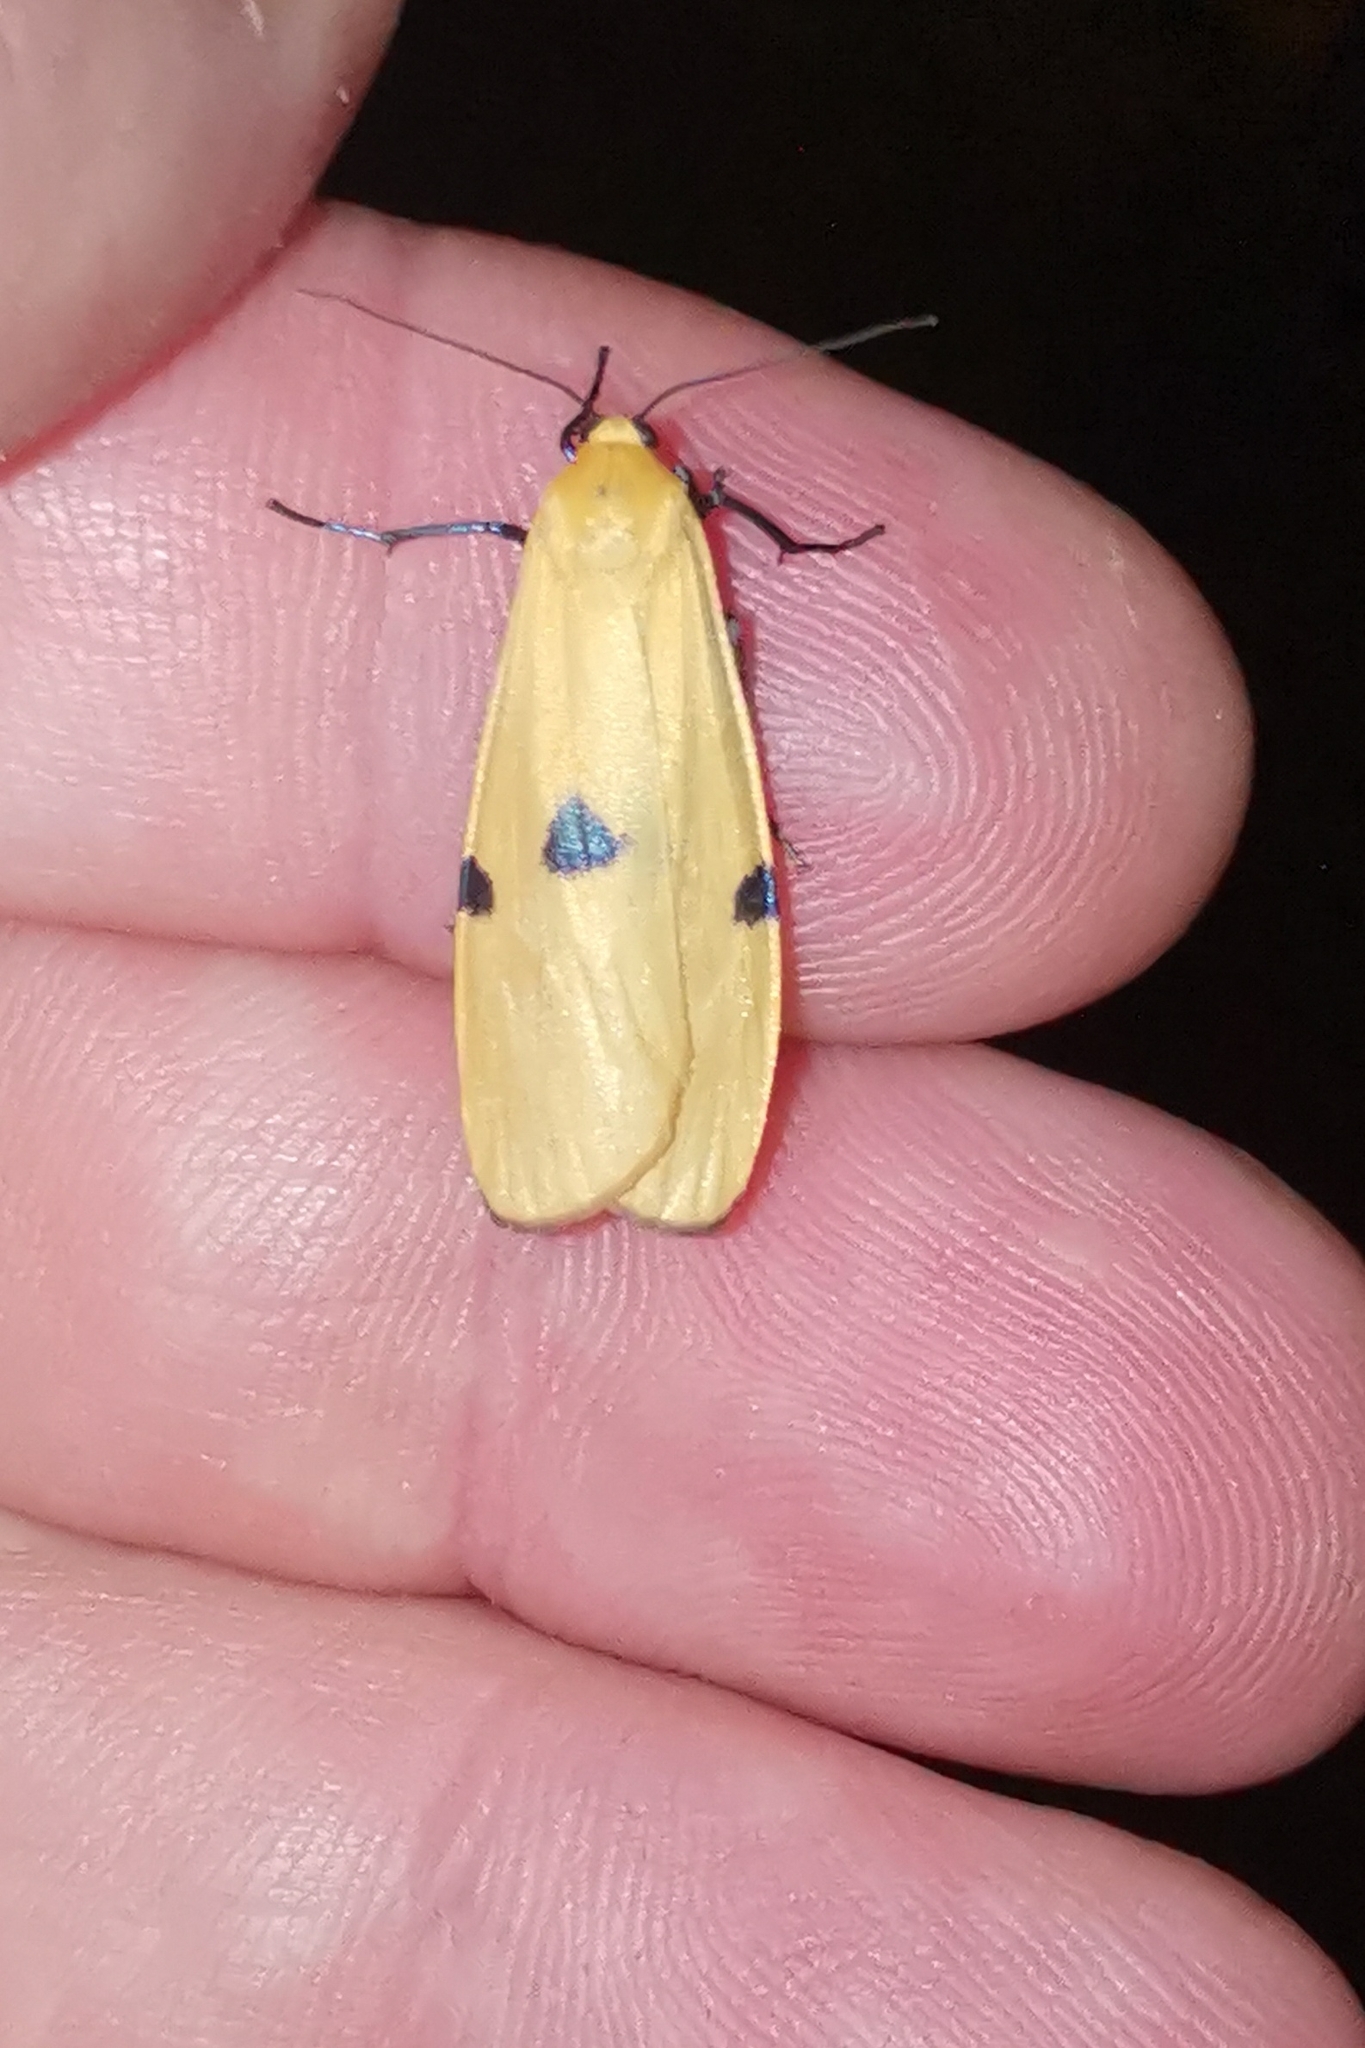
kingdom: Animalia
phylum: Arthropoda
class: Insecta
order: Lepidoptera
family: Erebidae
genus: Lithosia
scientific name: Lithosia quadra
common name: Four-spotted footman
